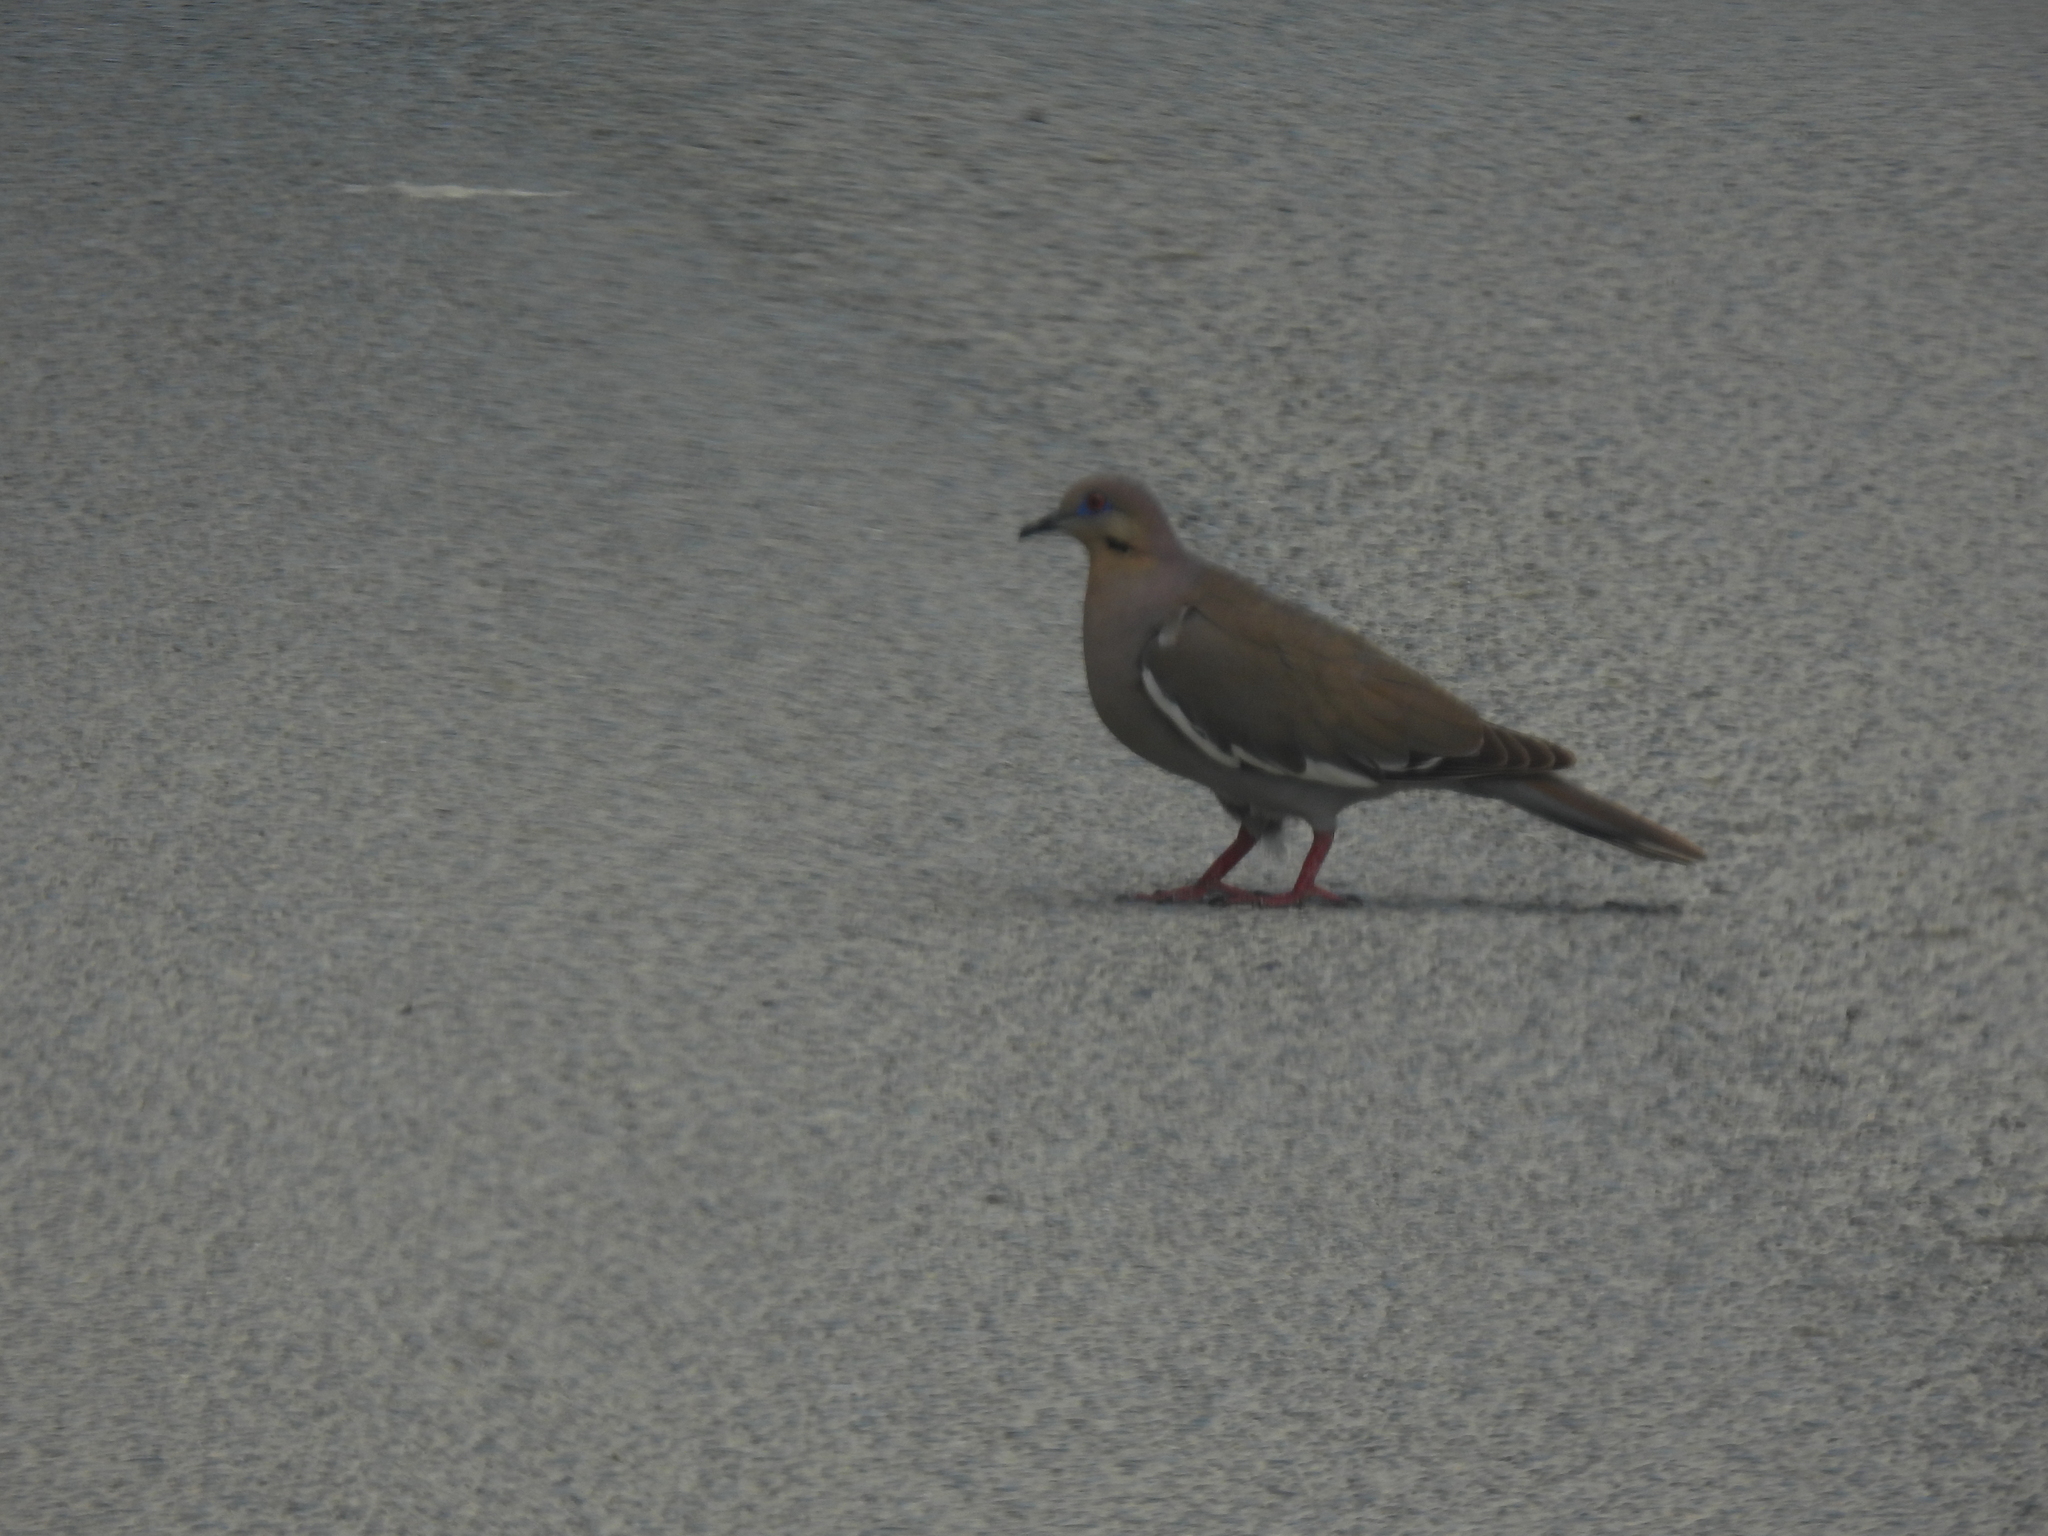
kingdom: Animalia
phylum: Chordata
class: Aves
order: Columbiformes
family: Columbidae
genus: Zenaida
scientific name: Zenaida asiatica
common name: White-winged dove
